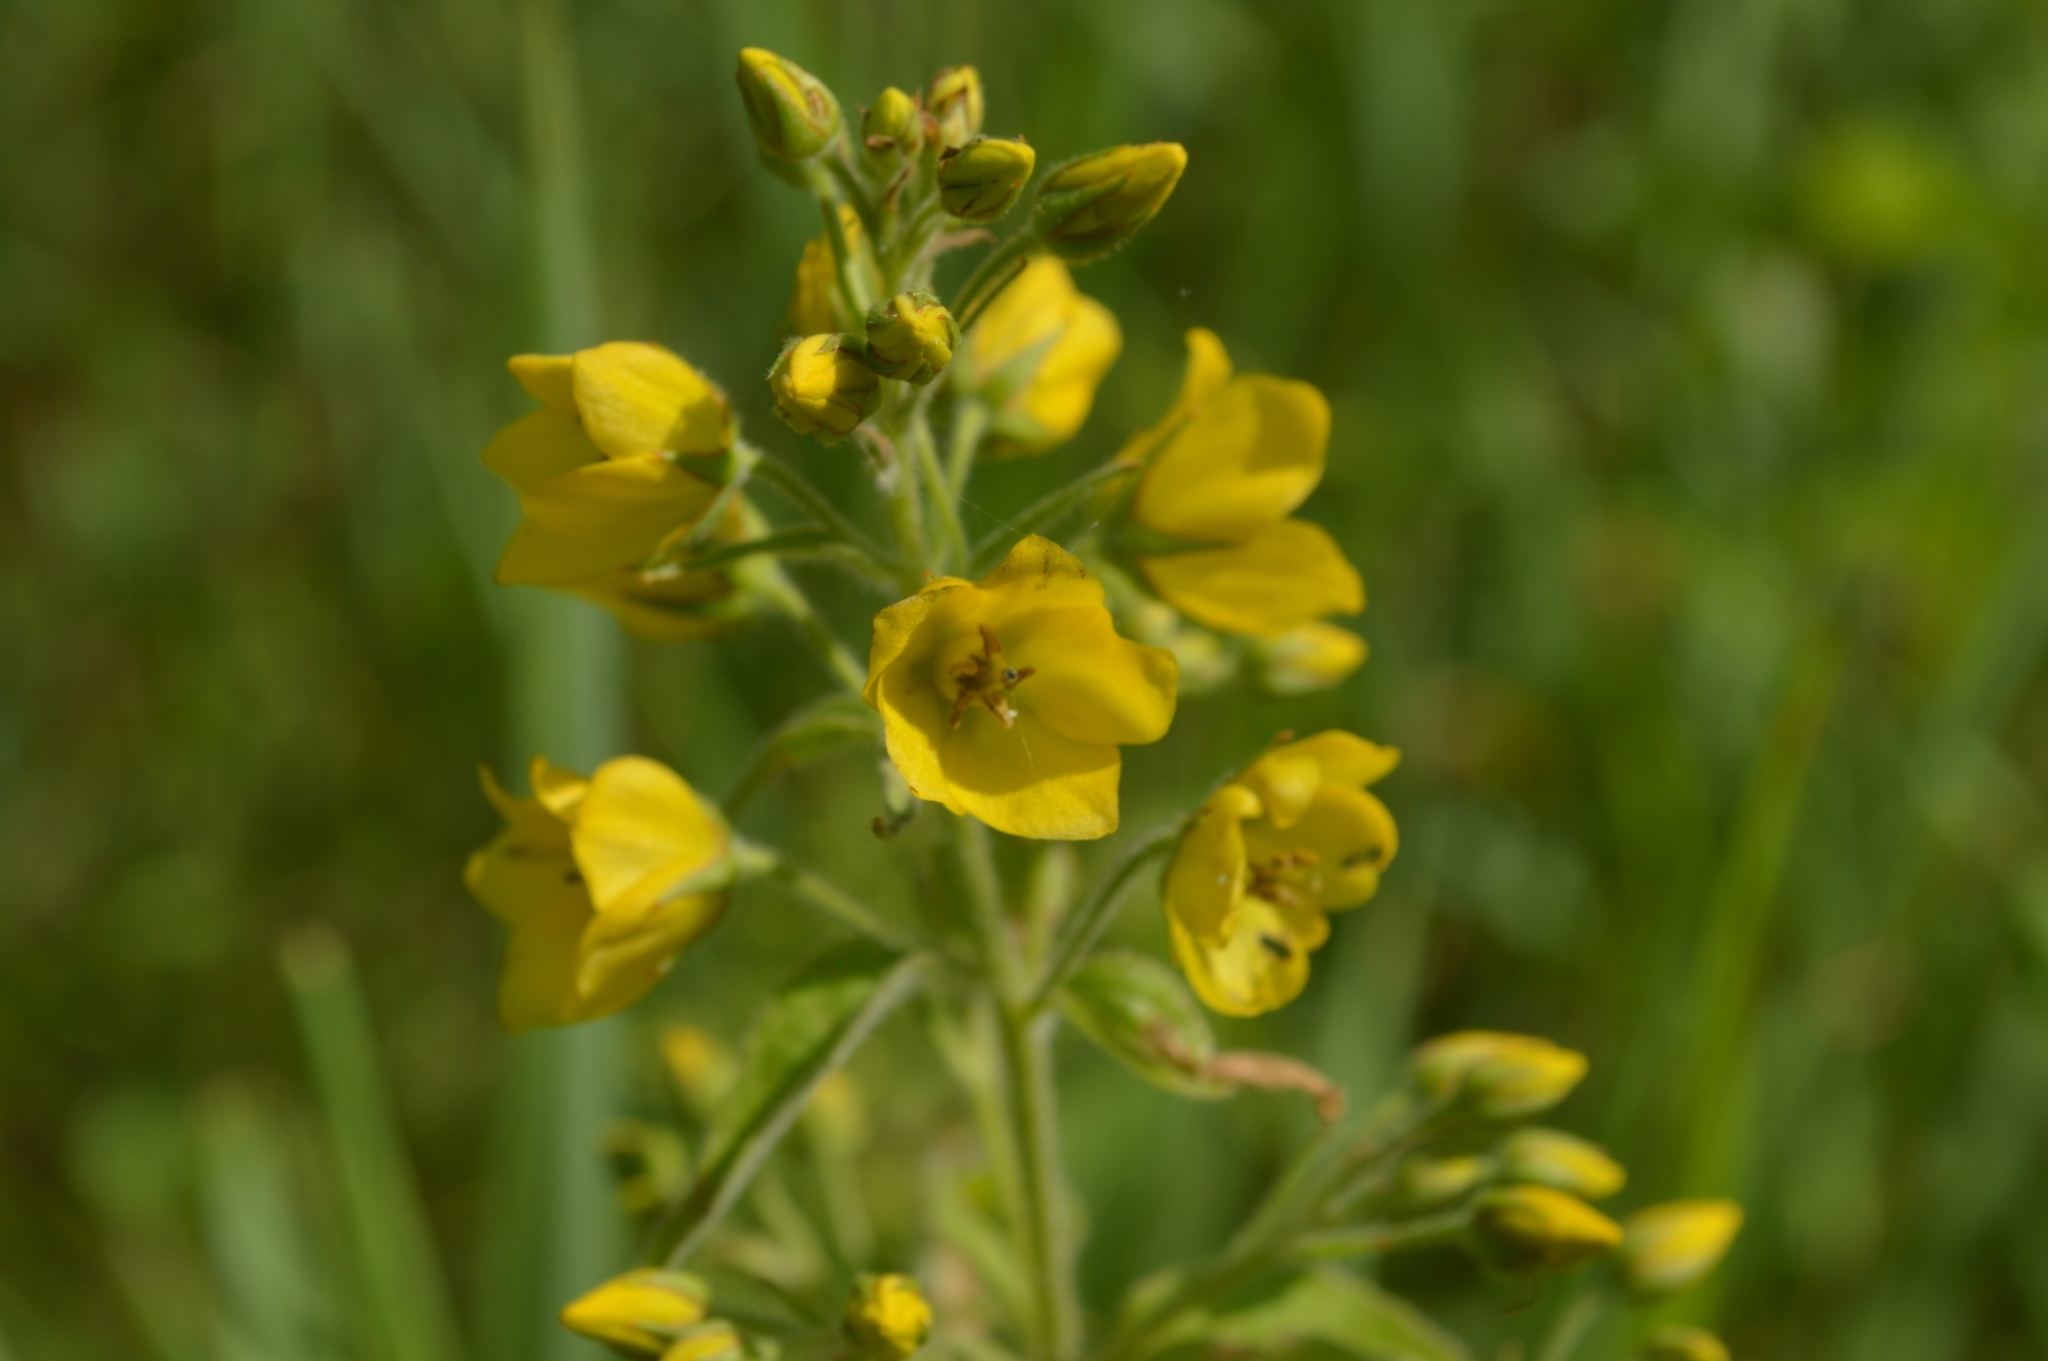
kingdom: Plantae
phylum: Tracheophyta
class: Magnoliopsida
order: Ericales
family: Primulaceae
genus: Lysimachia
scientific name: Lysimachia vulgaris
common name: Yellow loosestrife
